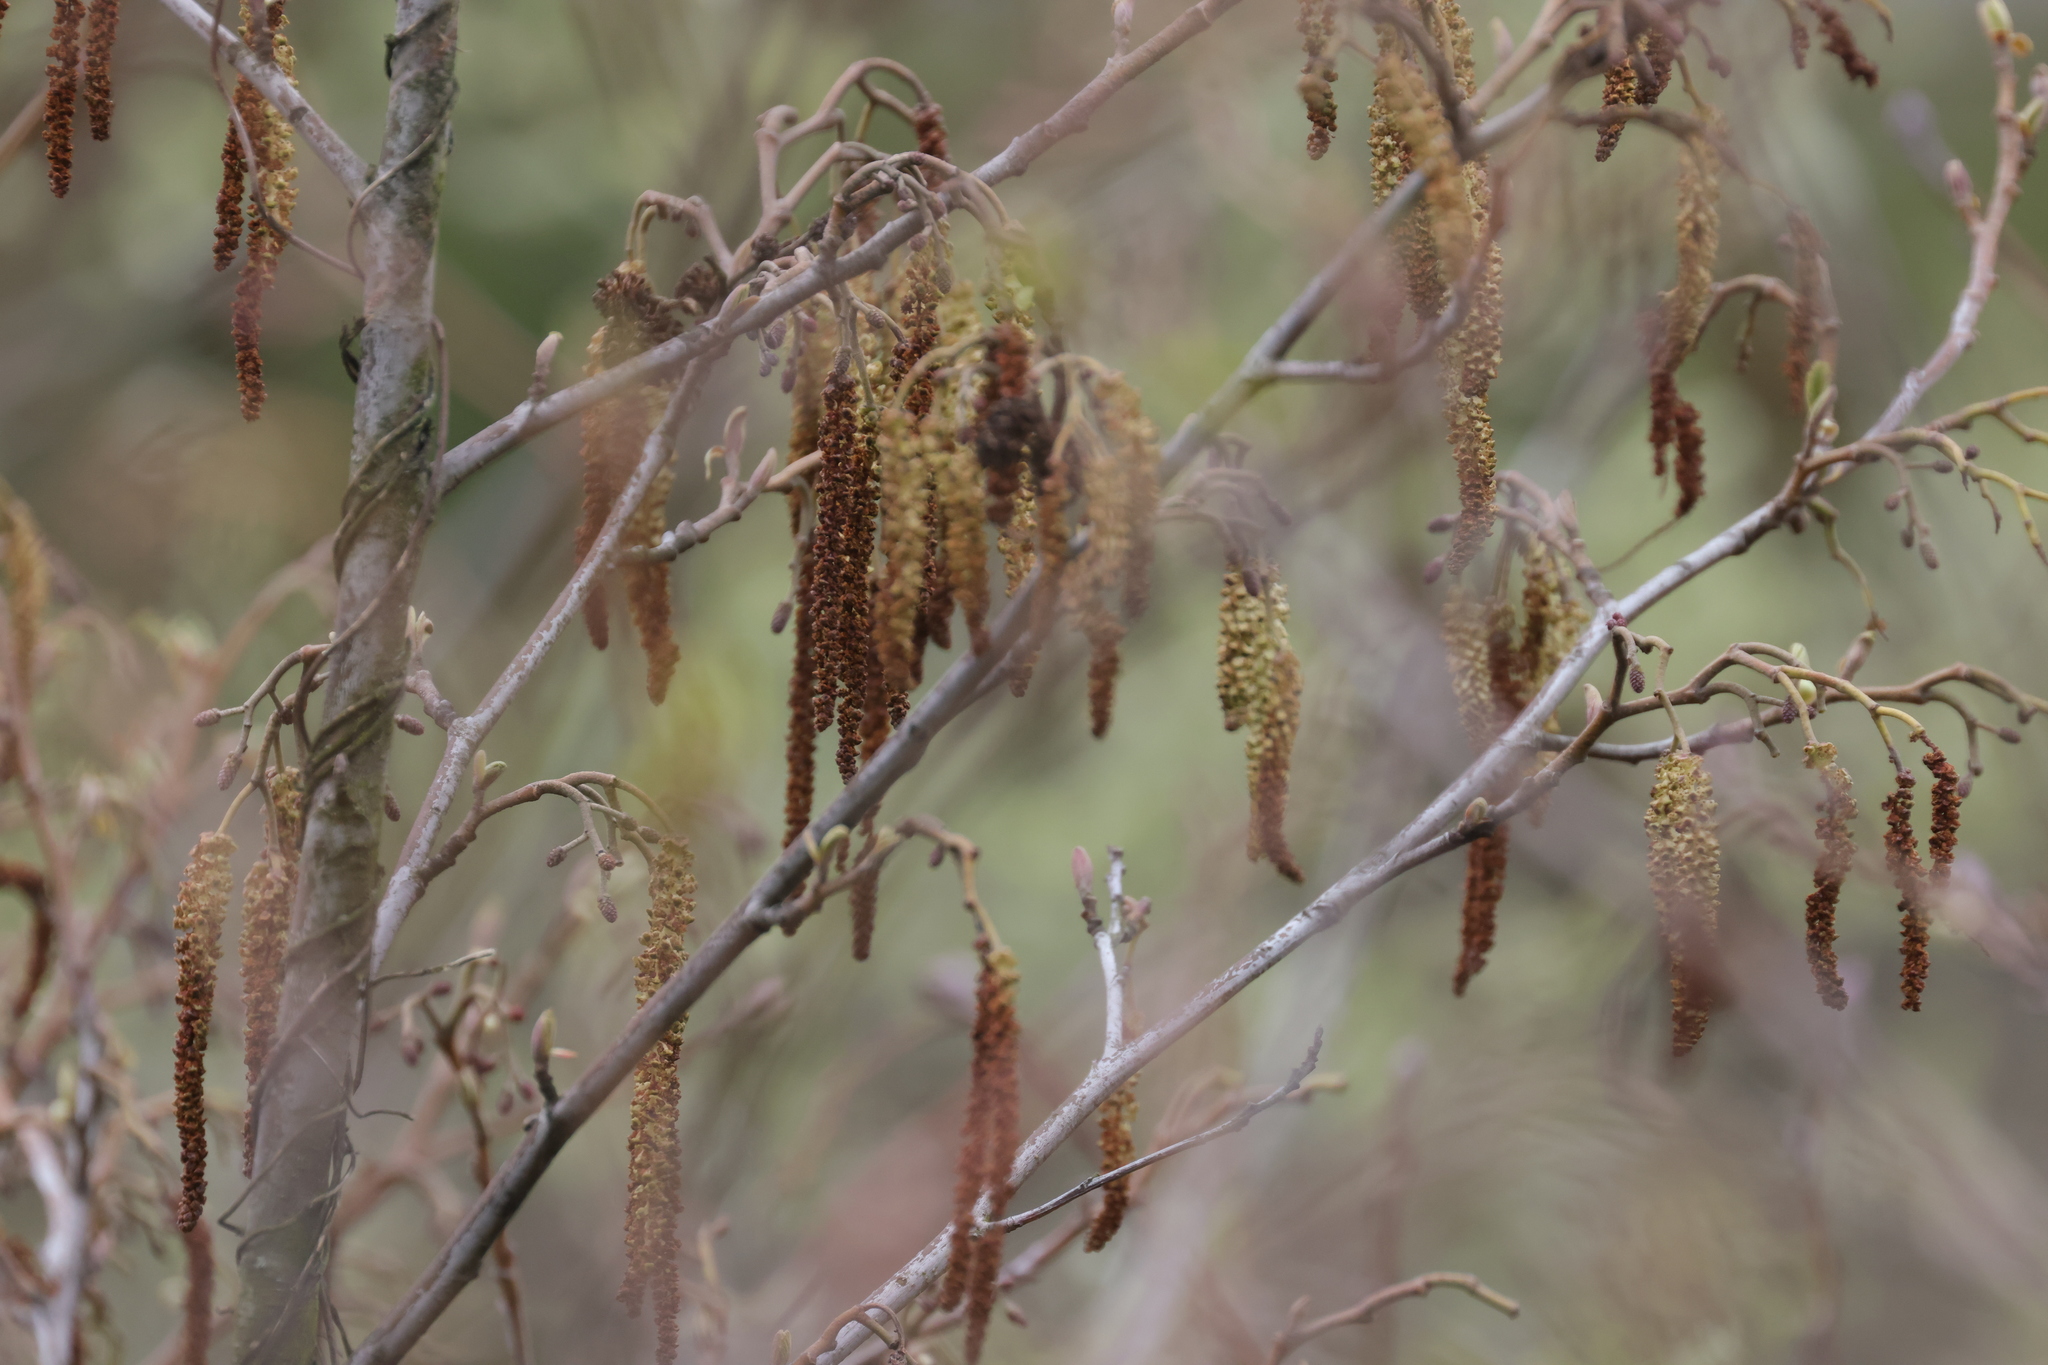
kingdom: Plantae
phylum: Tracheophyta
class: Magnoliopsida
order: Fagales
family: Betulaceae
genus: Alnus
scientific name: Alnus glutinosa
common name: Black alder
